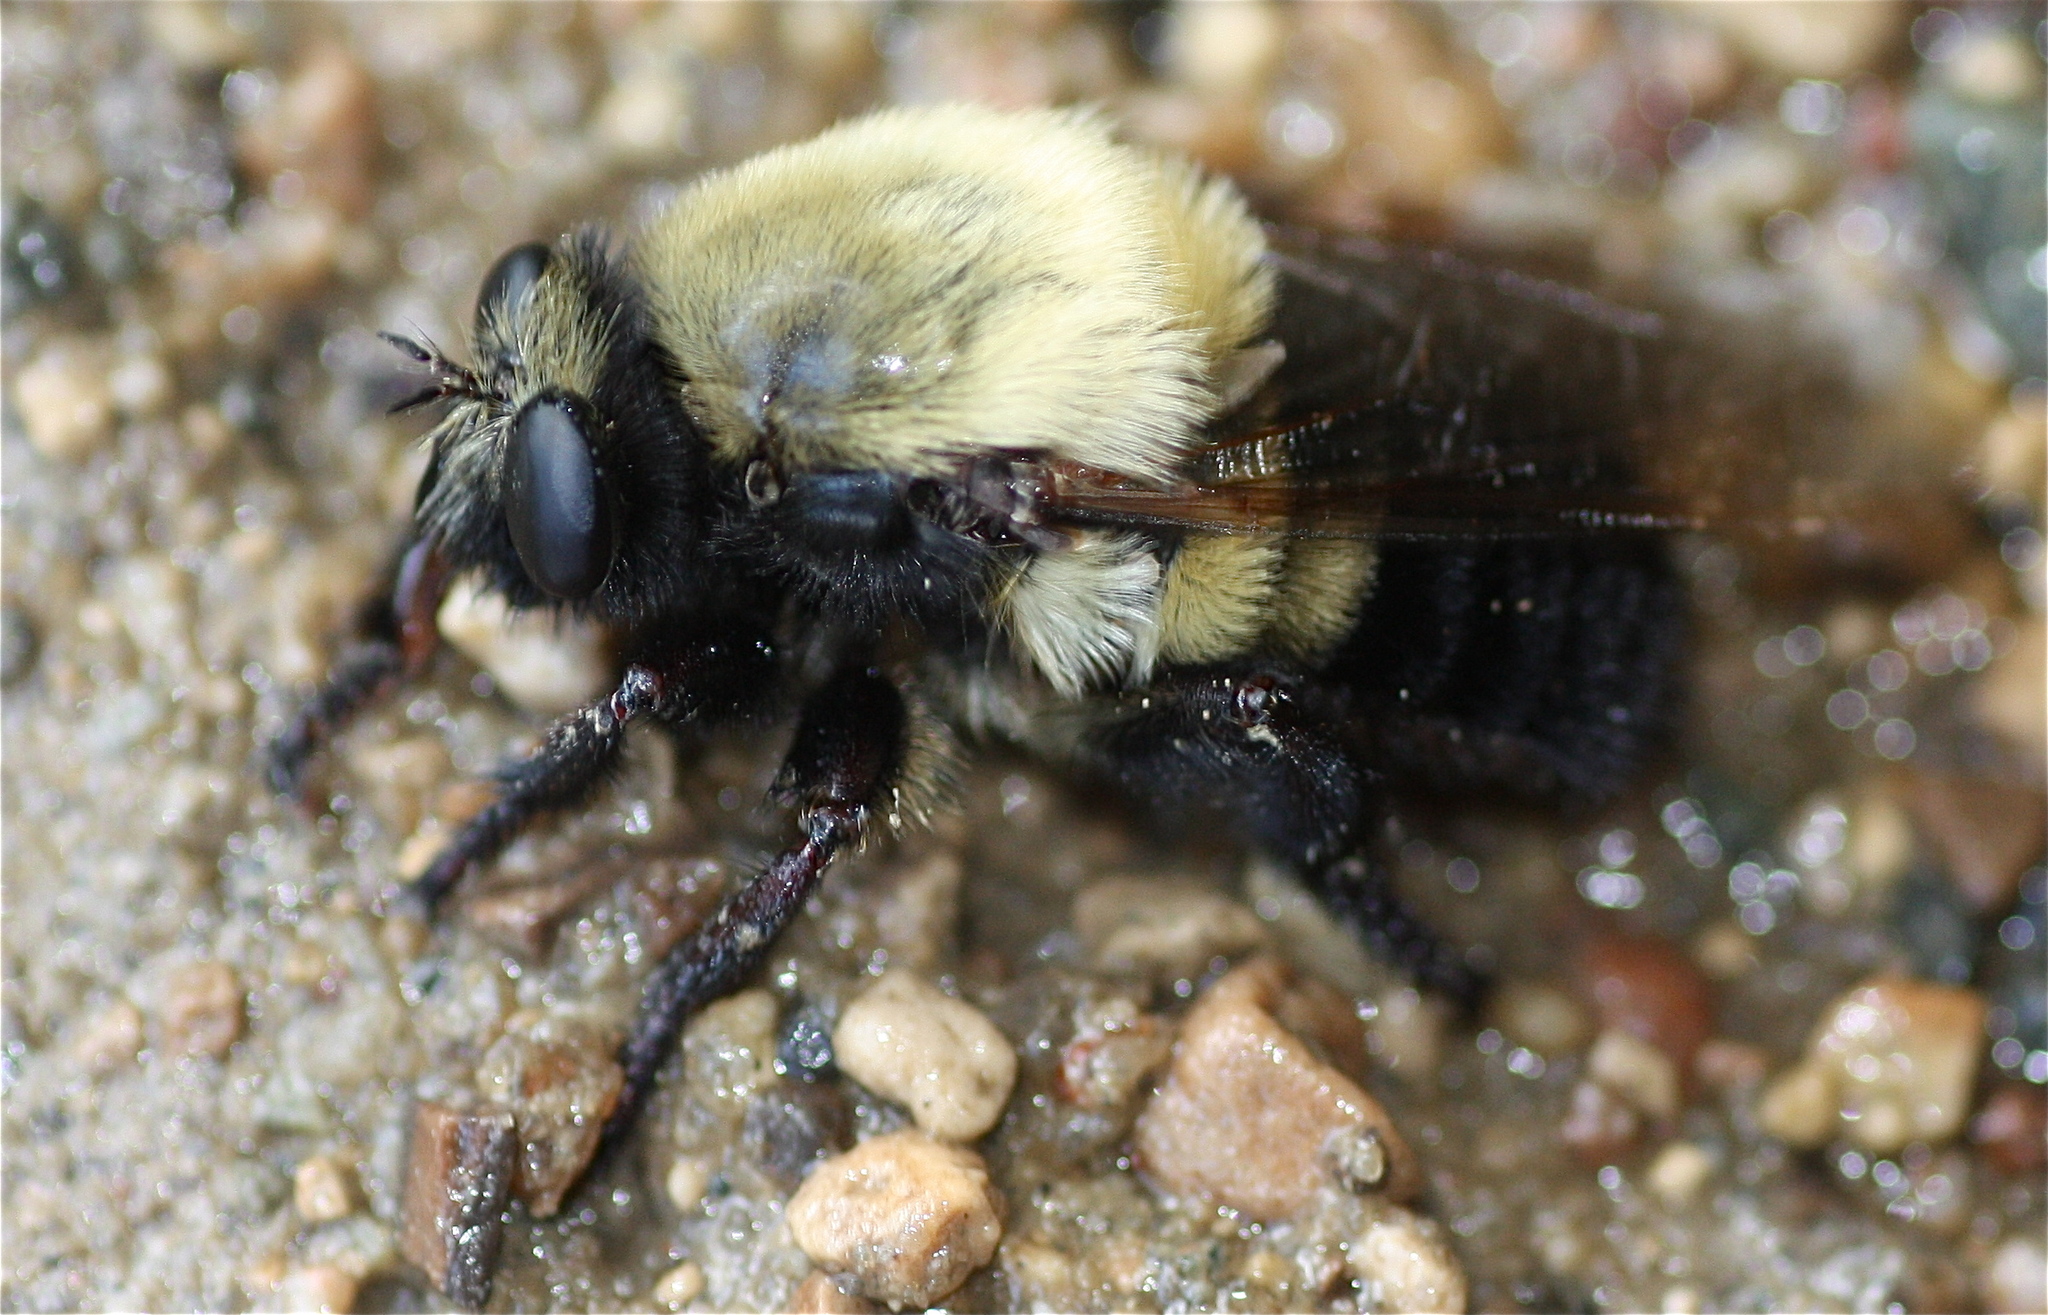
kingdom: Animalia
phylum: Arthropoda
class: Insecta
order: Diptera
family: Asilidae
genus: Dasylechia
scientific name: Dasylechia atrox
